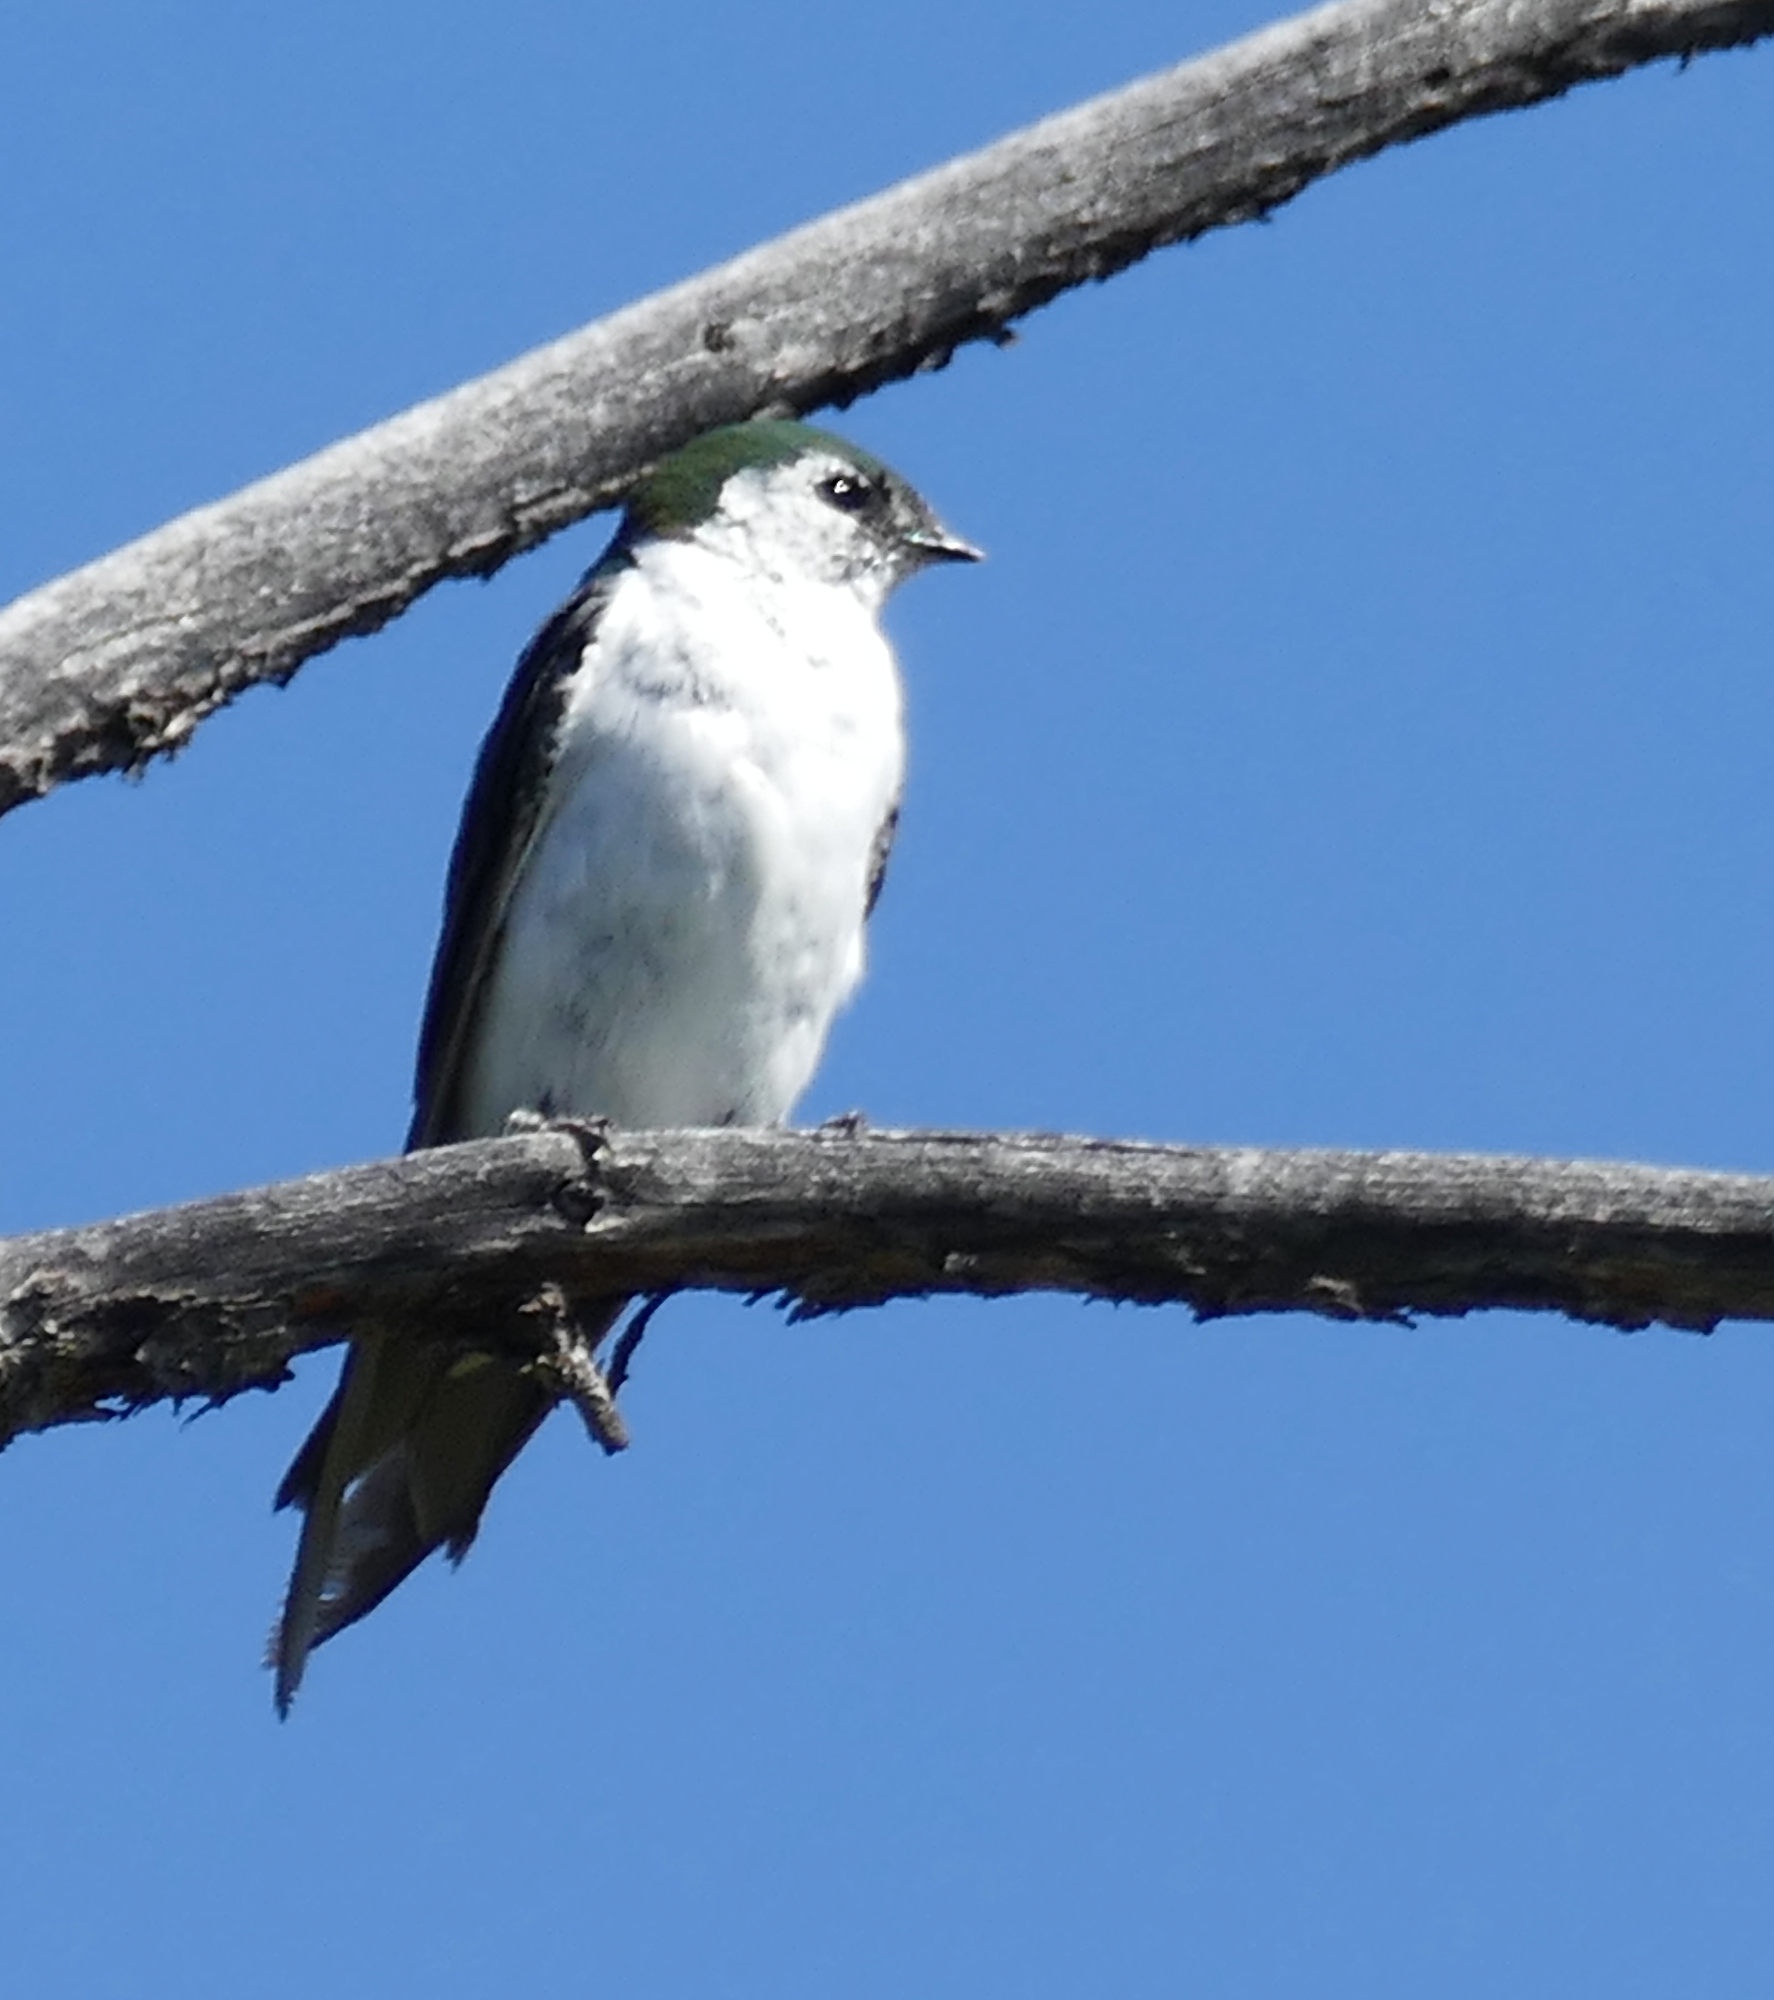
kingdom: Animalia
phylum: Chordata
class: Aves
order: Passeriformes
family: Hirundinidae
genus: Tachycineta
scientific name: Tachycineta thalassina
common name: Violet-green swallow
